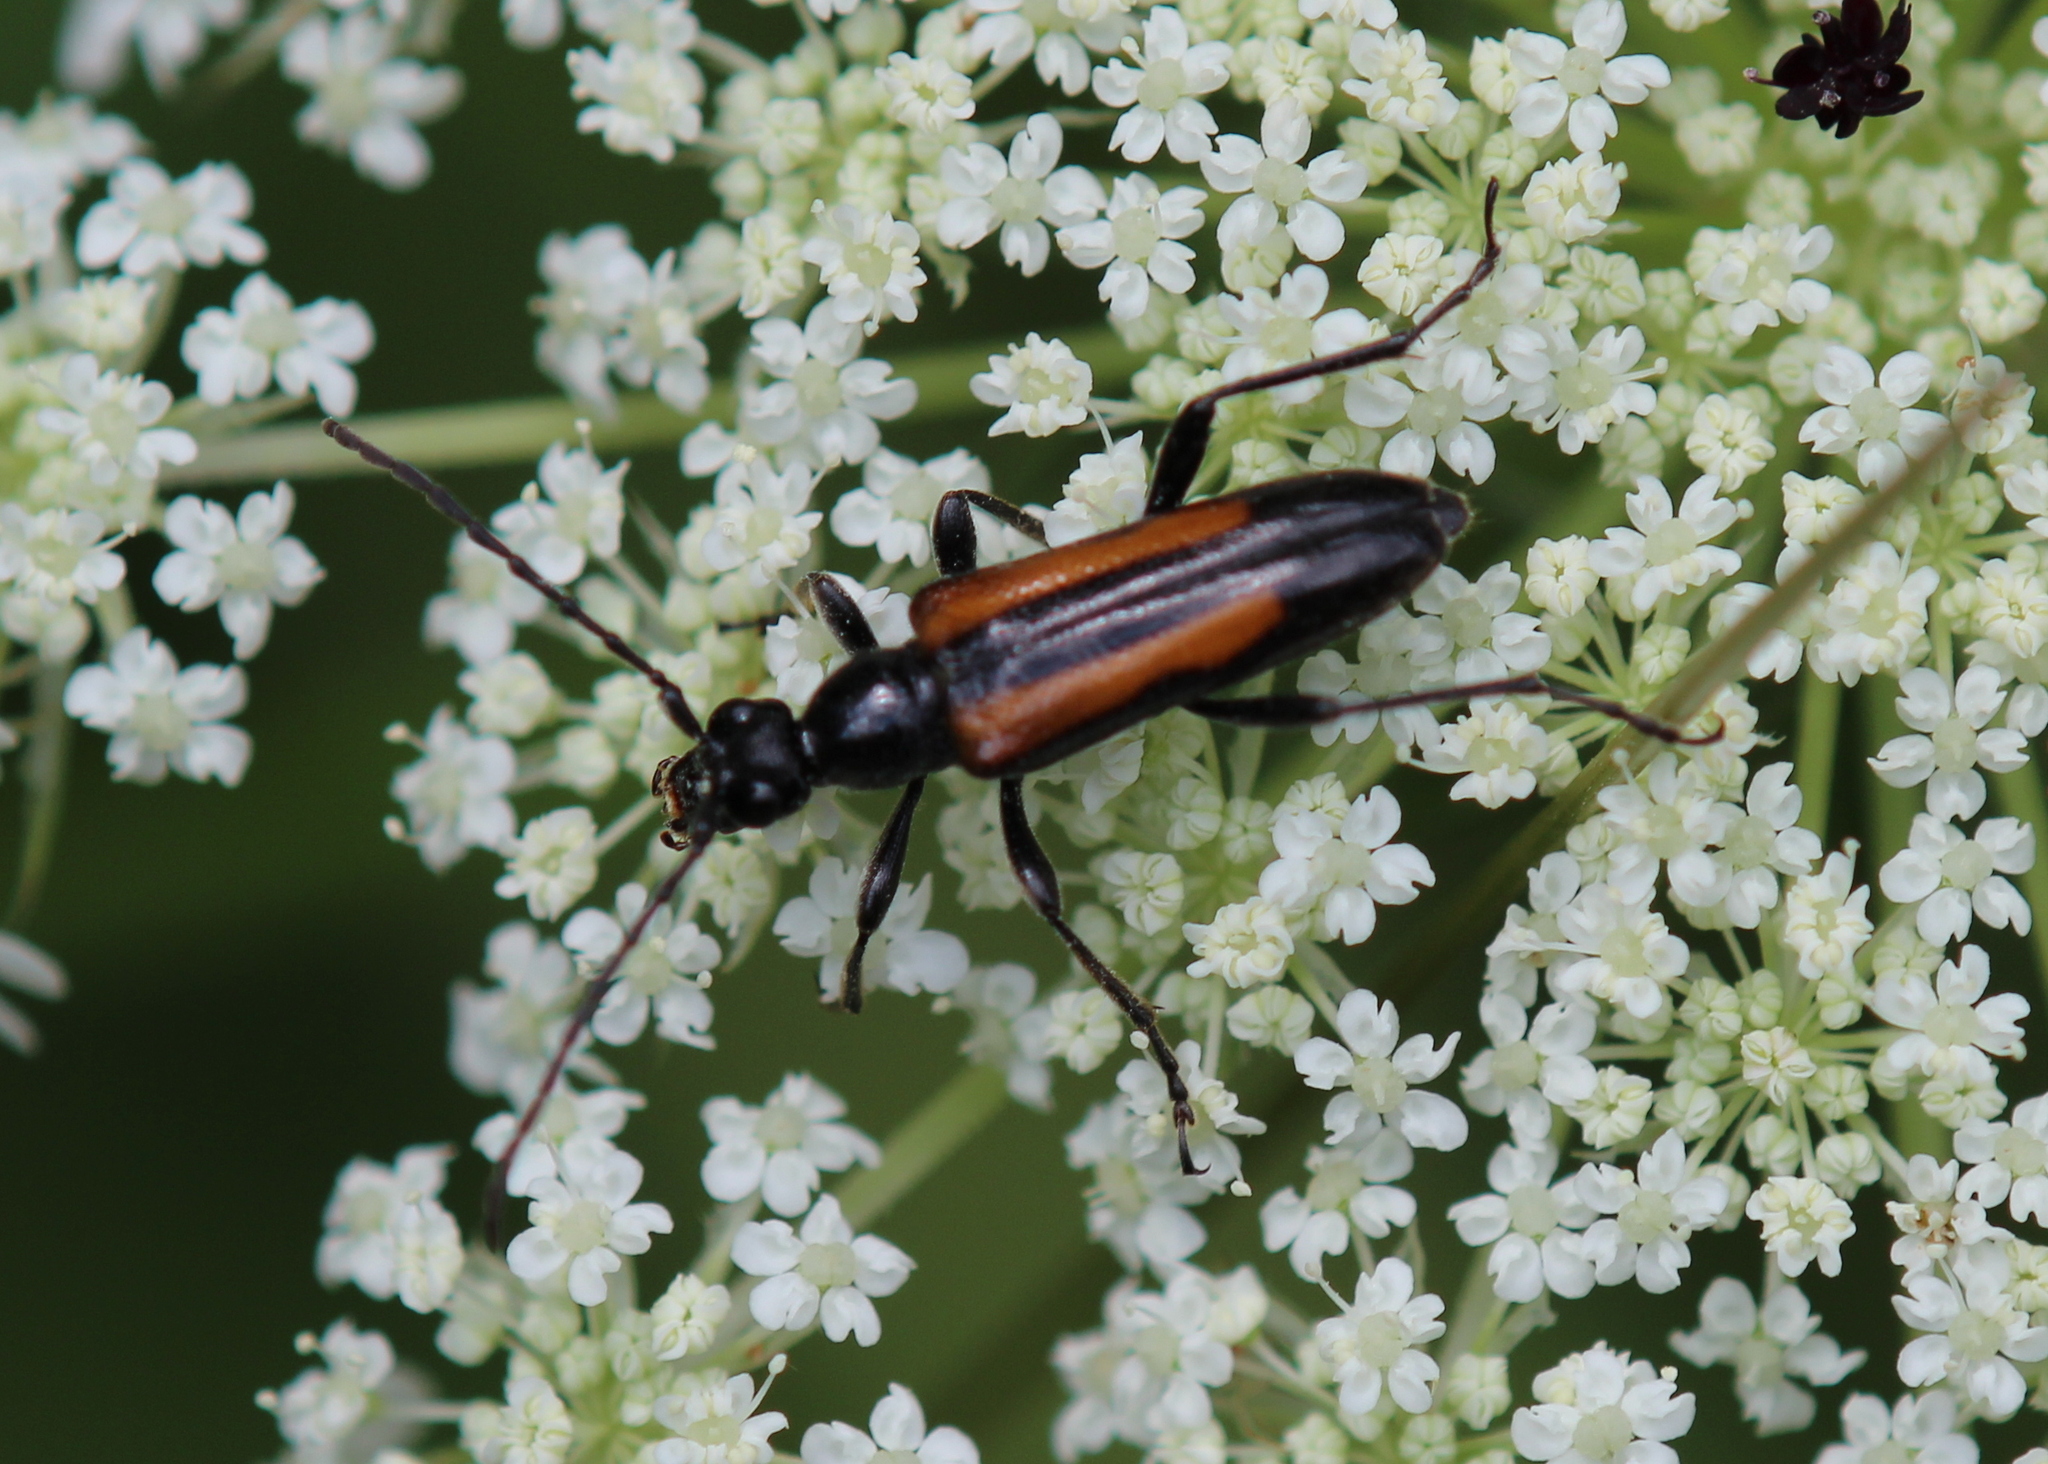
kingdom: Animalia
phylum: Arthropoda
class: Insecta
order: Coleoptera
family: Cerambycidae
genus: Strangalepta
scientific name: Strangalepta abbreviata
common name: Strangalepta flower longhorn beetle
